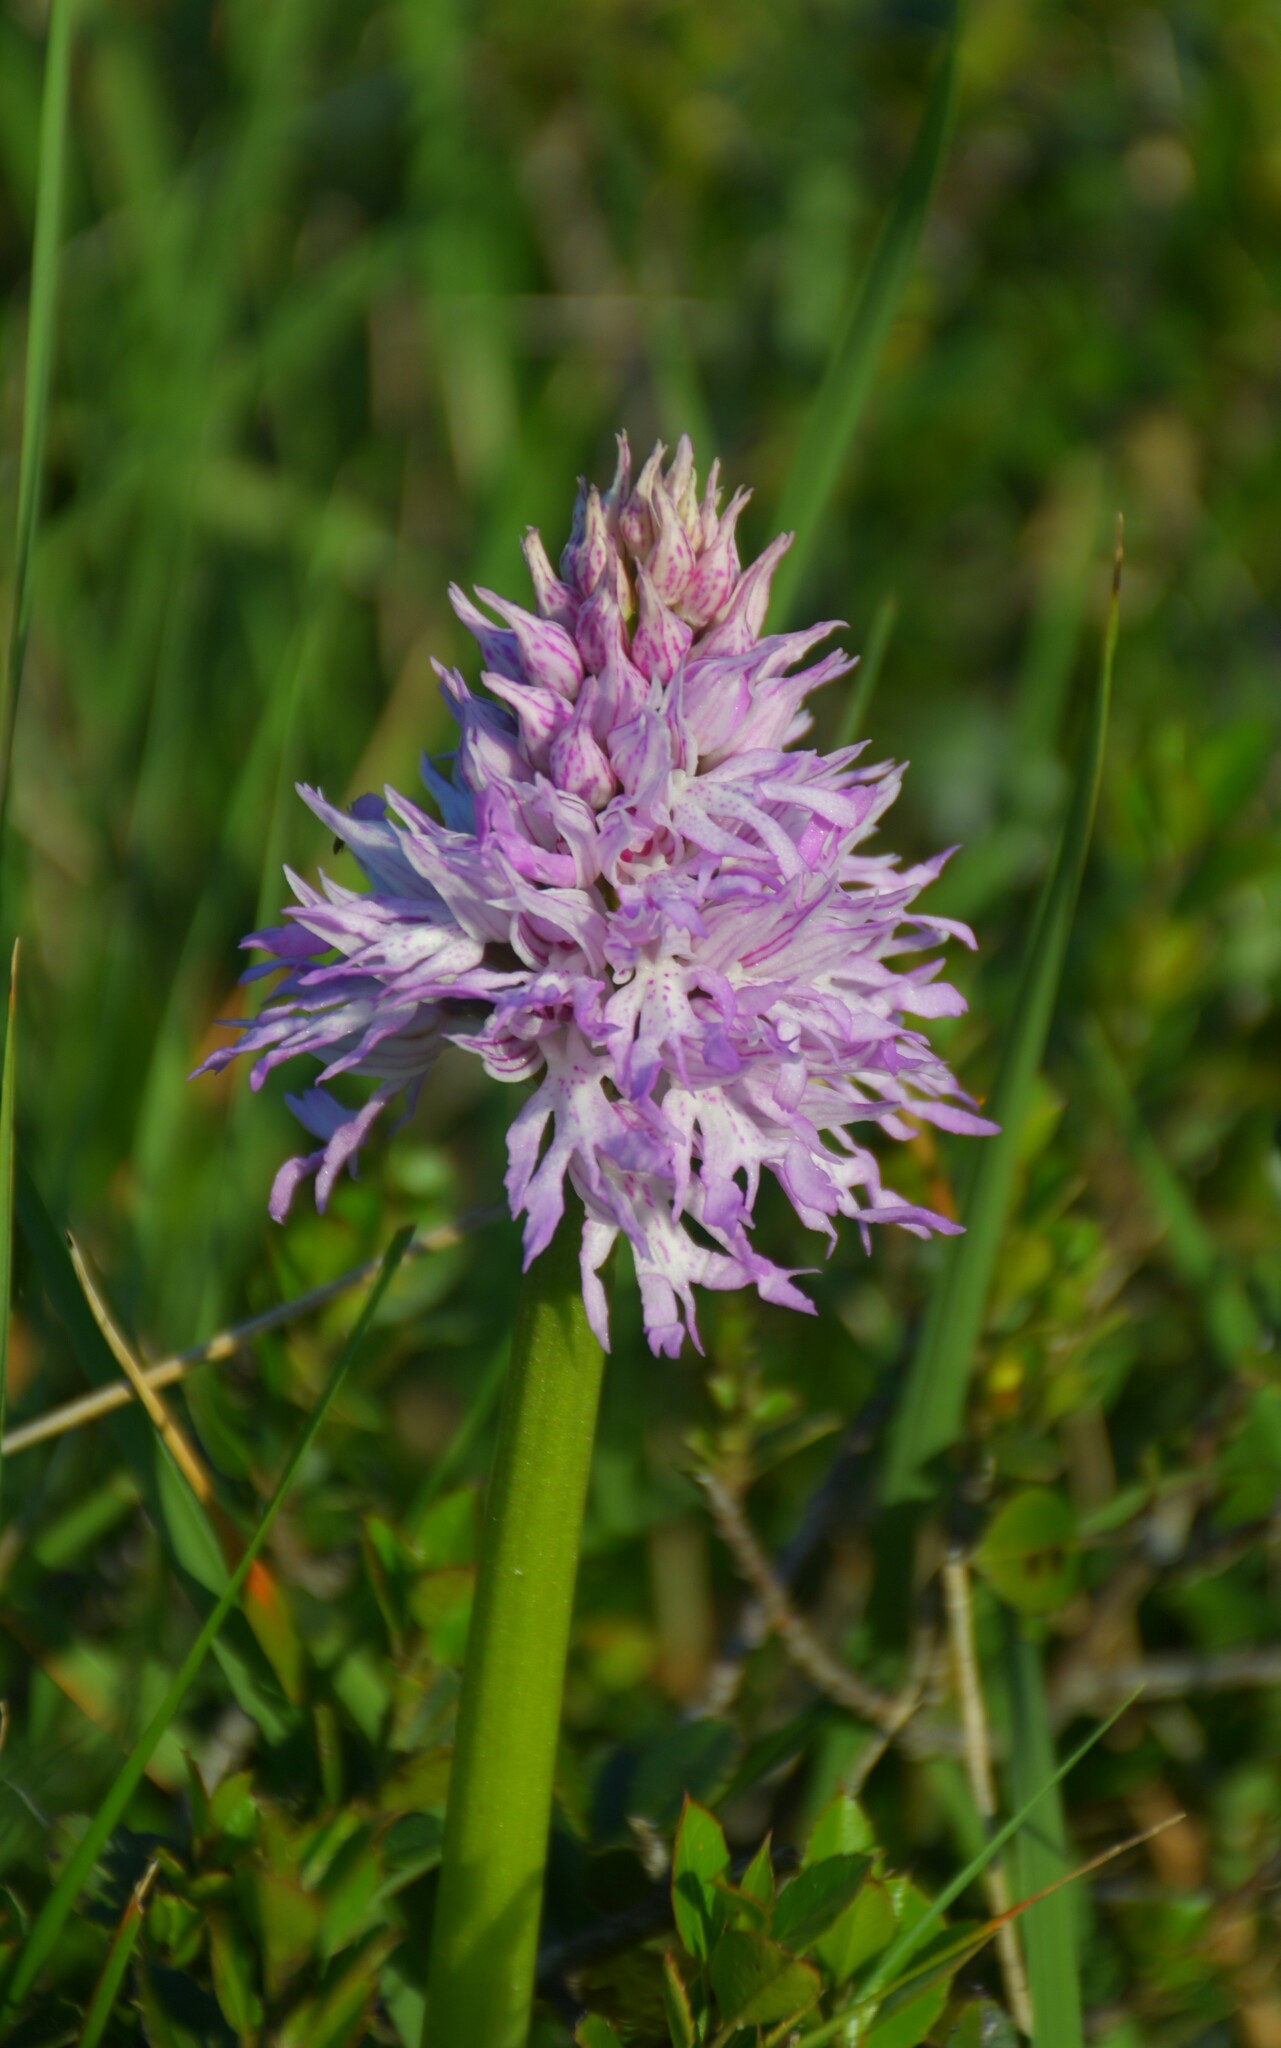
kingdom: Plantae
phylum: Tracheophyta
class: Liliopsida
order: Asparagales
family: Orchidaceae
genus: Orchis
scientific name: Orchis italica
